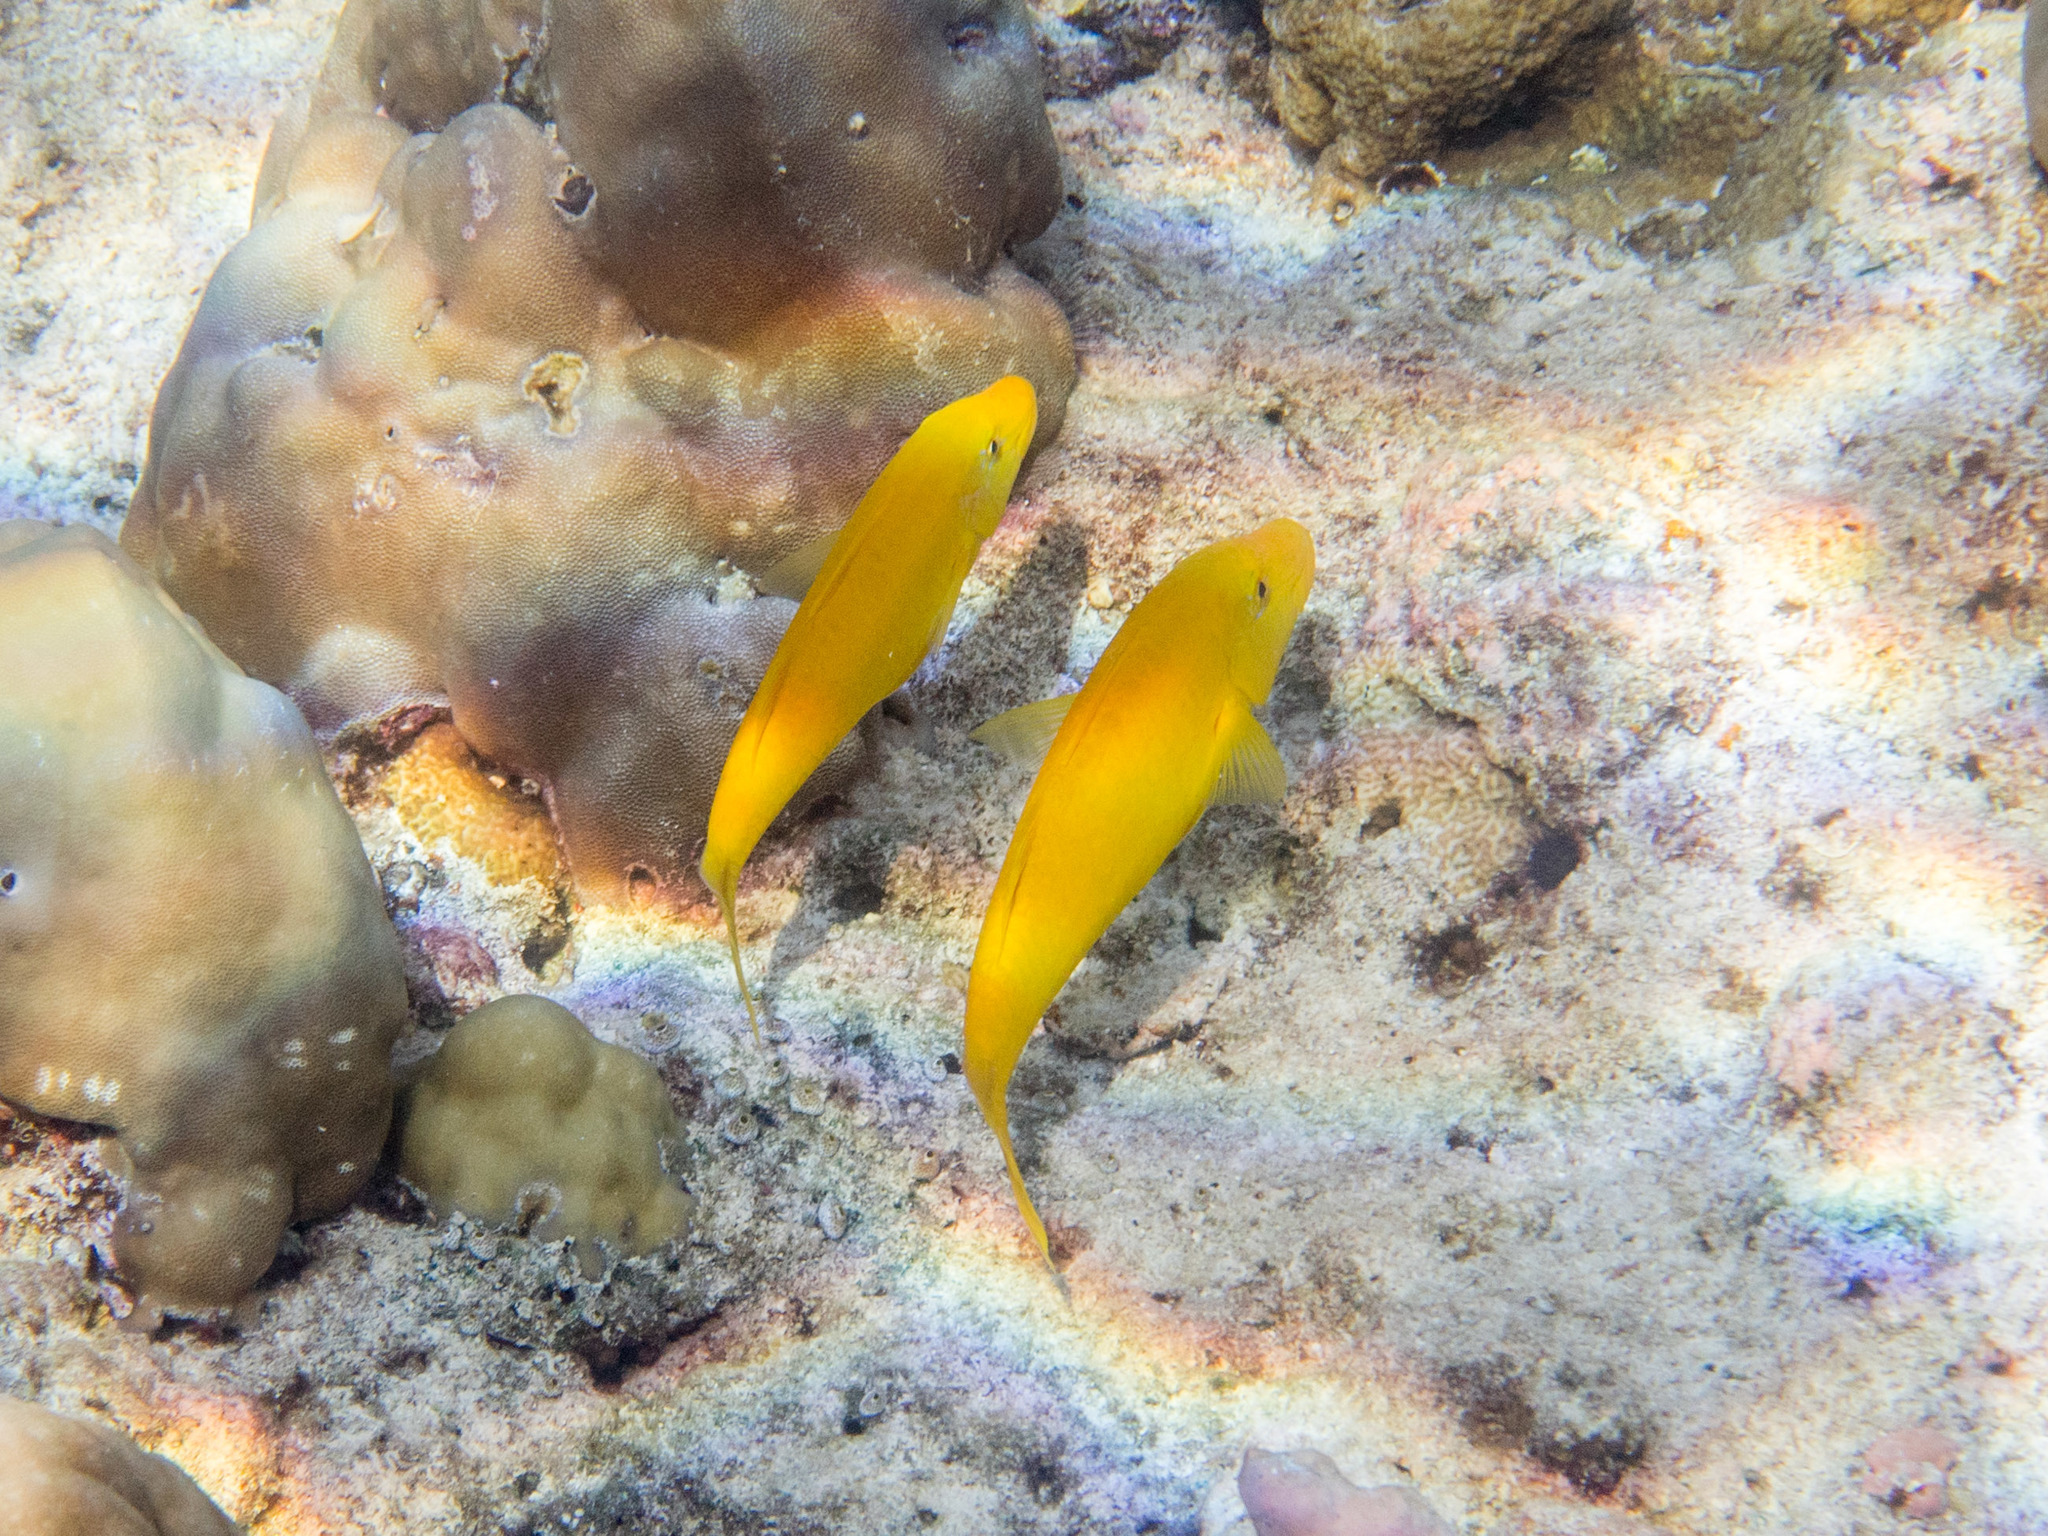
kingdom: Animalia
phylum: Chordata
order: Perciformes
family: Mullidae
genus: Parupeneus
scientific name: Parupeneus cyclostomus
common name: Goldsaddle goatfish
